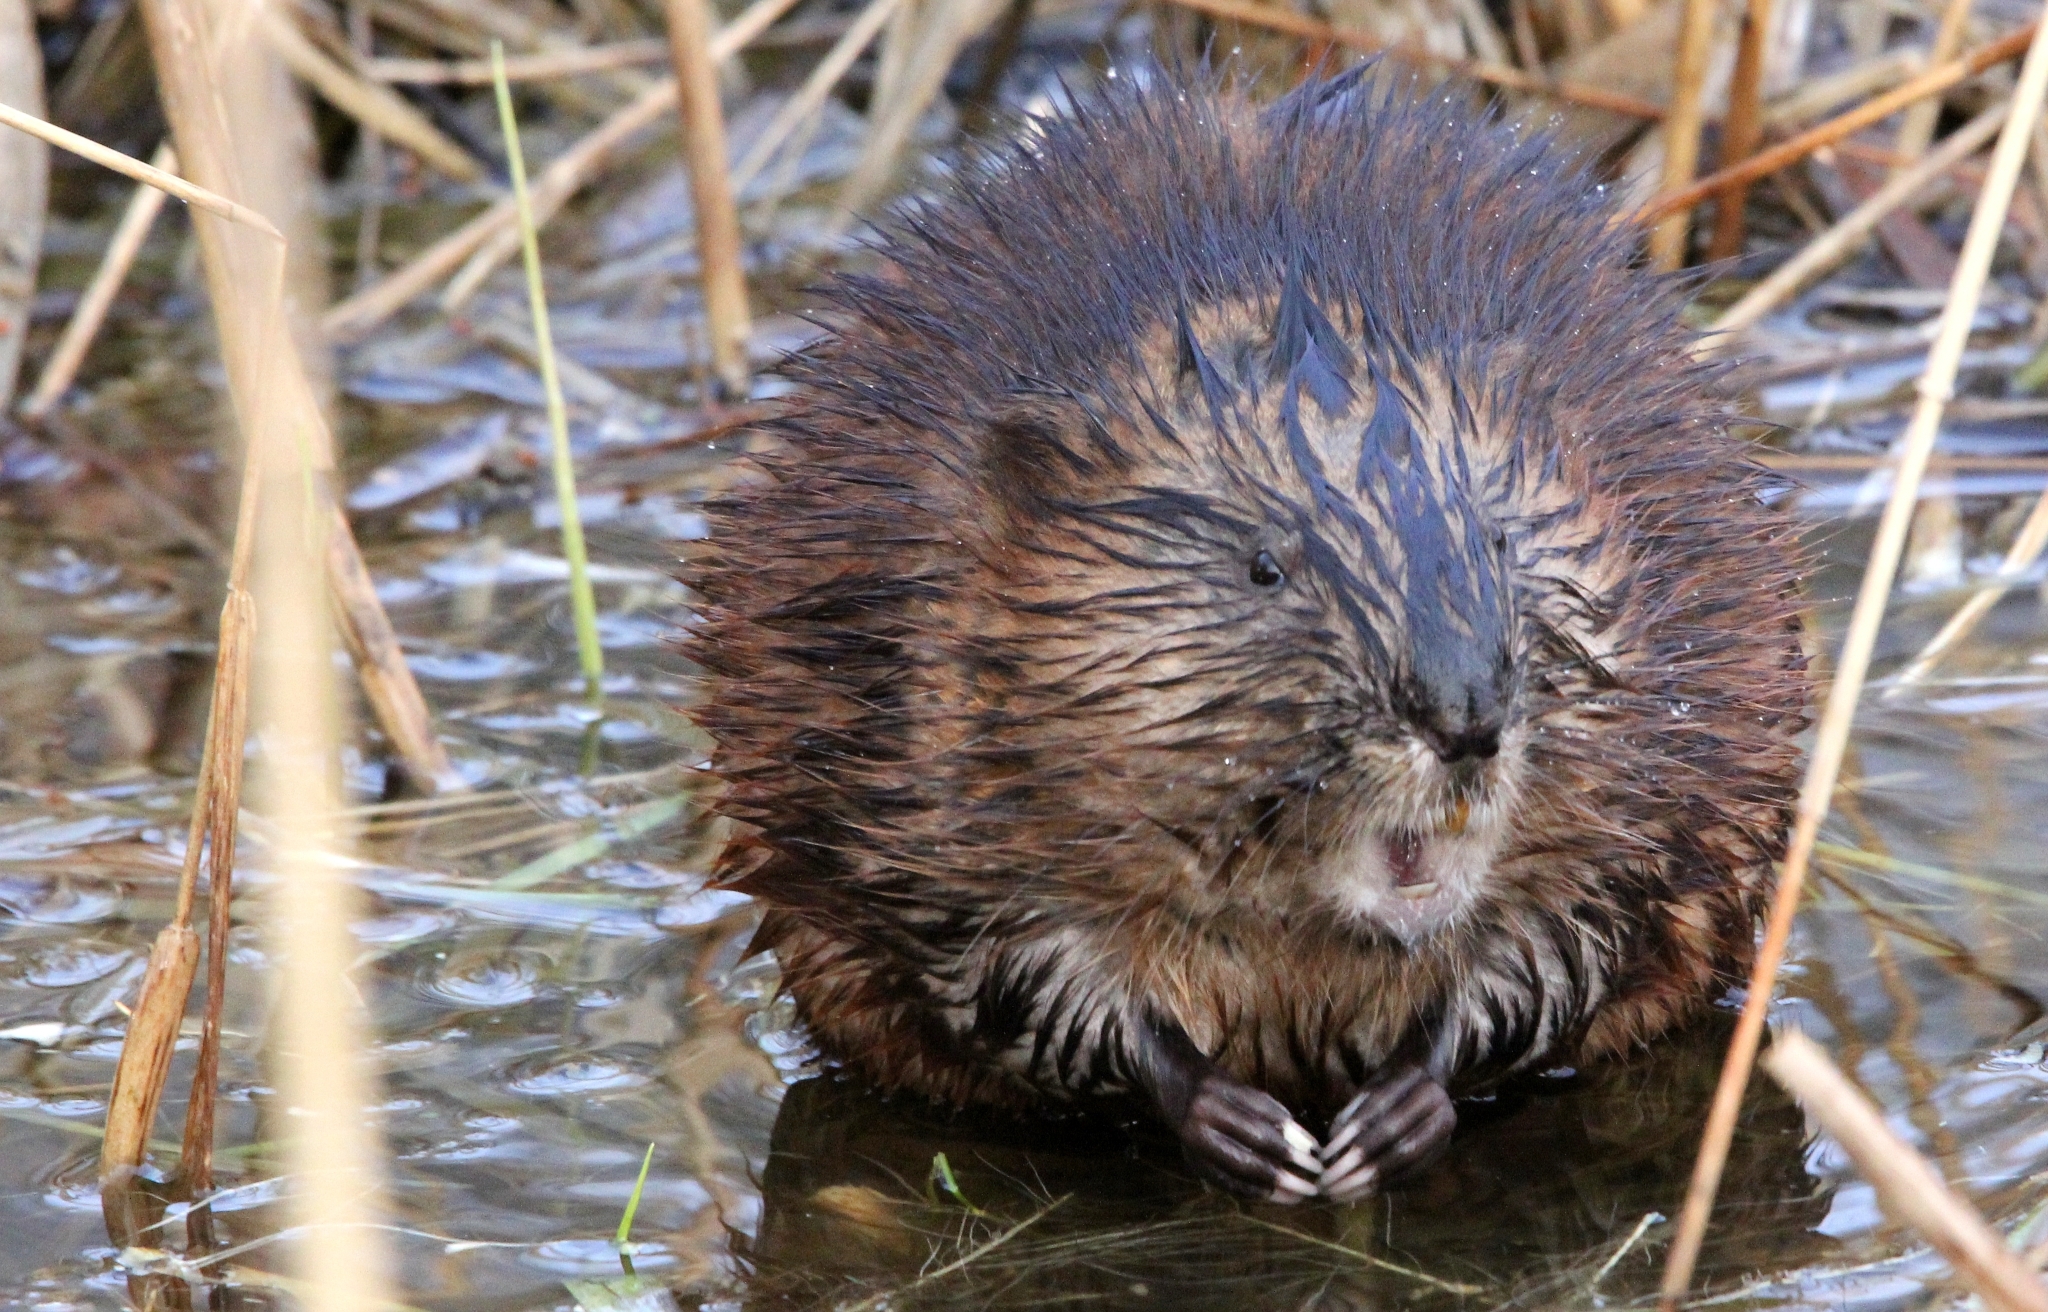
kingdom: Animalia
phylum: Chordata
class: Mammalia
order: Rodentia
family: Cricetidae
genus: Ondatra
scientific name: Ondatra zibethicus
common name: Muskrat
